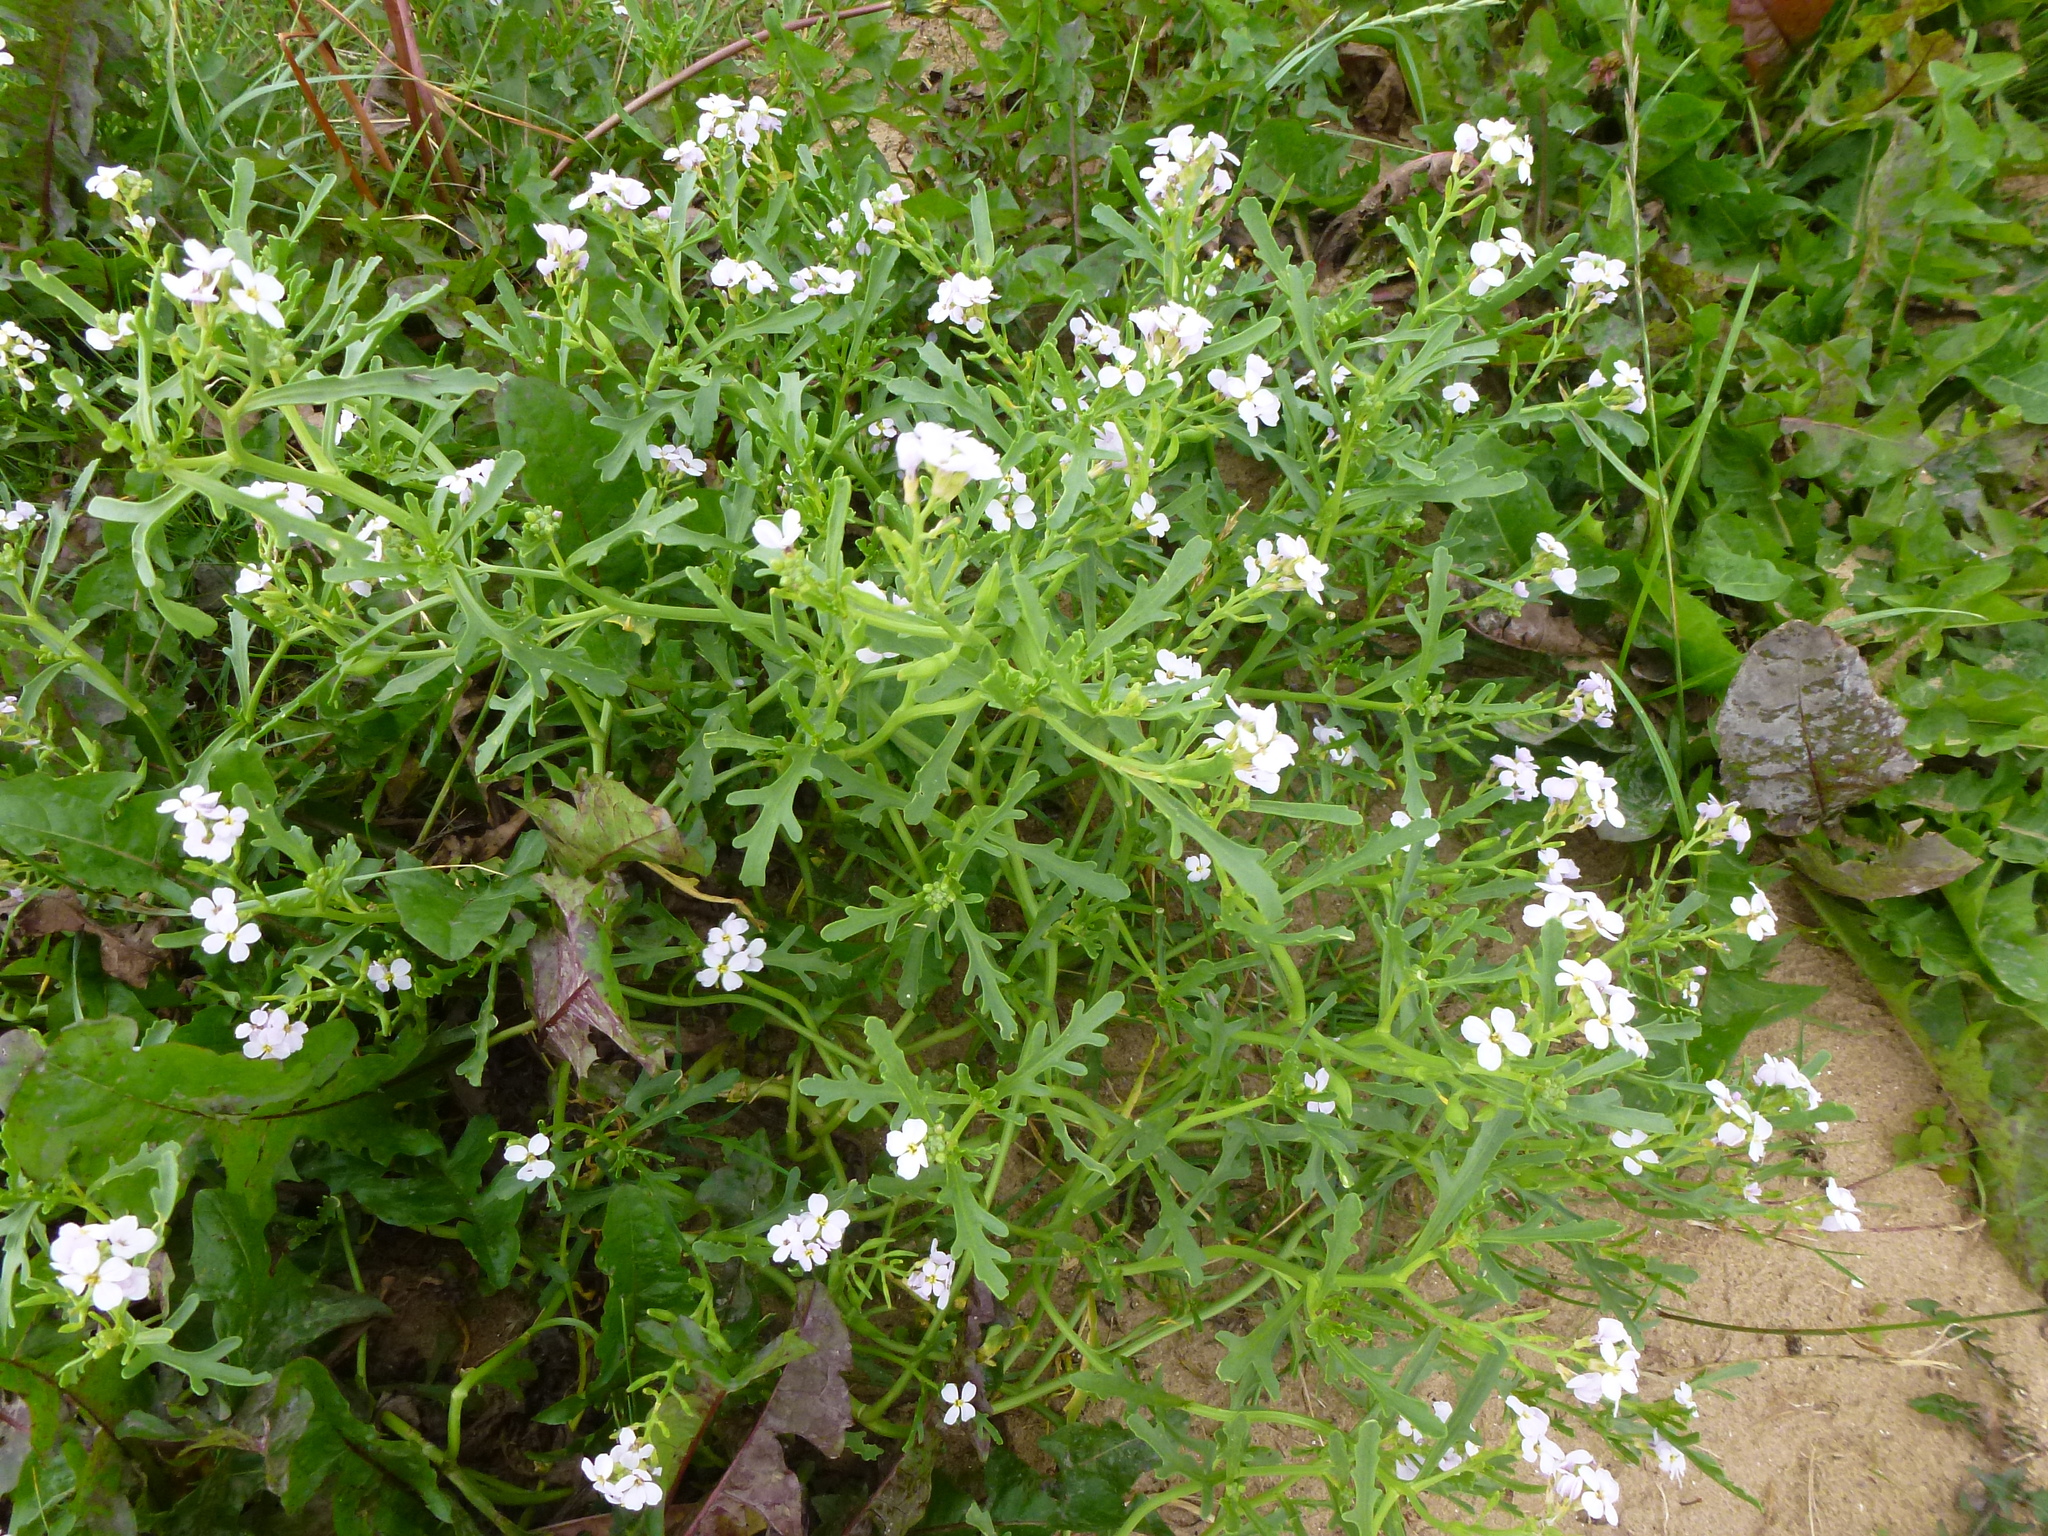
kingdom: Plantae
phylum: Tracheophyta
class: Magnoliopsida
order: Brassicales
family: Brassicaceae
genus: Cakile
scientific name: Cakile maritima
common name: Sea rocket
